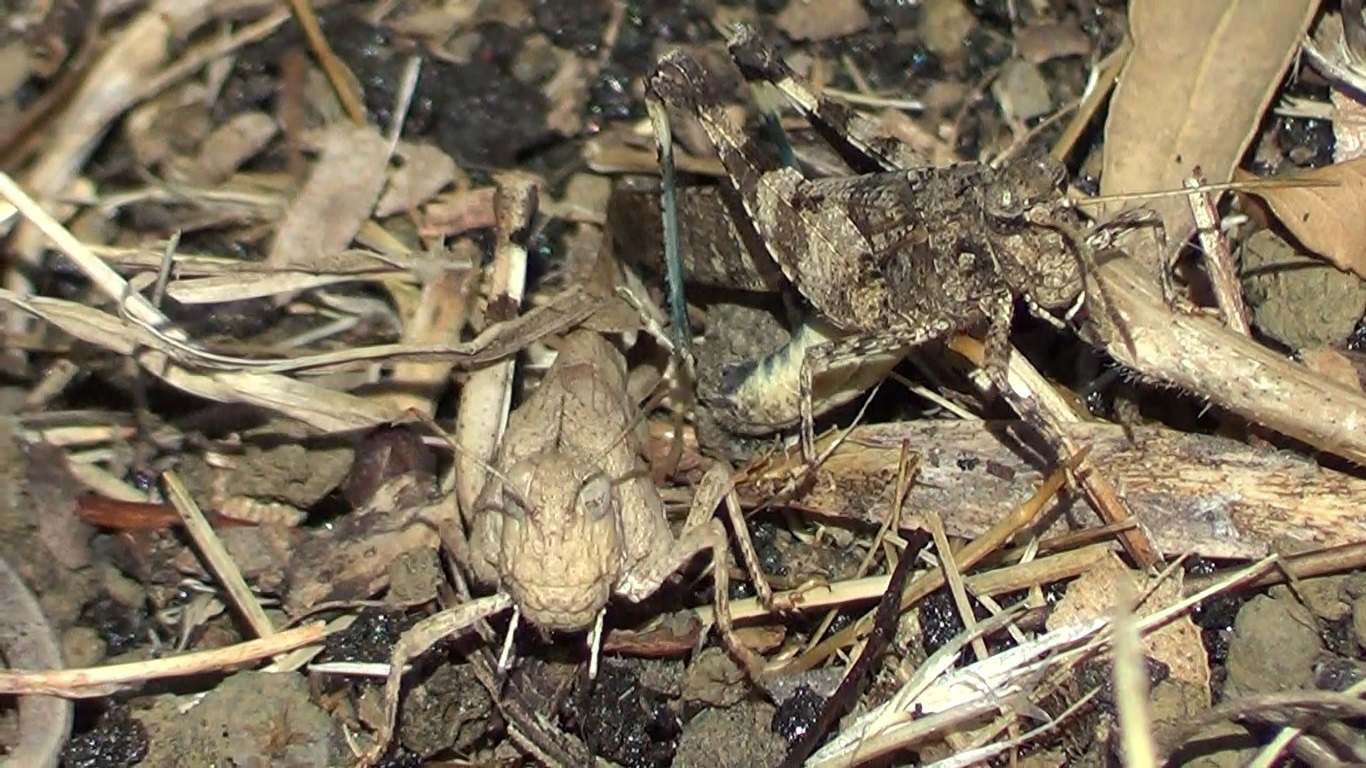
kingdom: Animalia
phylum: Arthropoda
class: Insecta
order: Orthoptera
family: Acrididae
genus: Oedipoda
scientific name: Oedipoda caerulescens
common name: Blue-winged grasshopper
